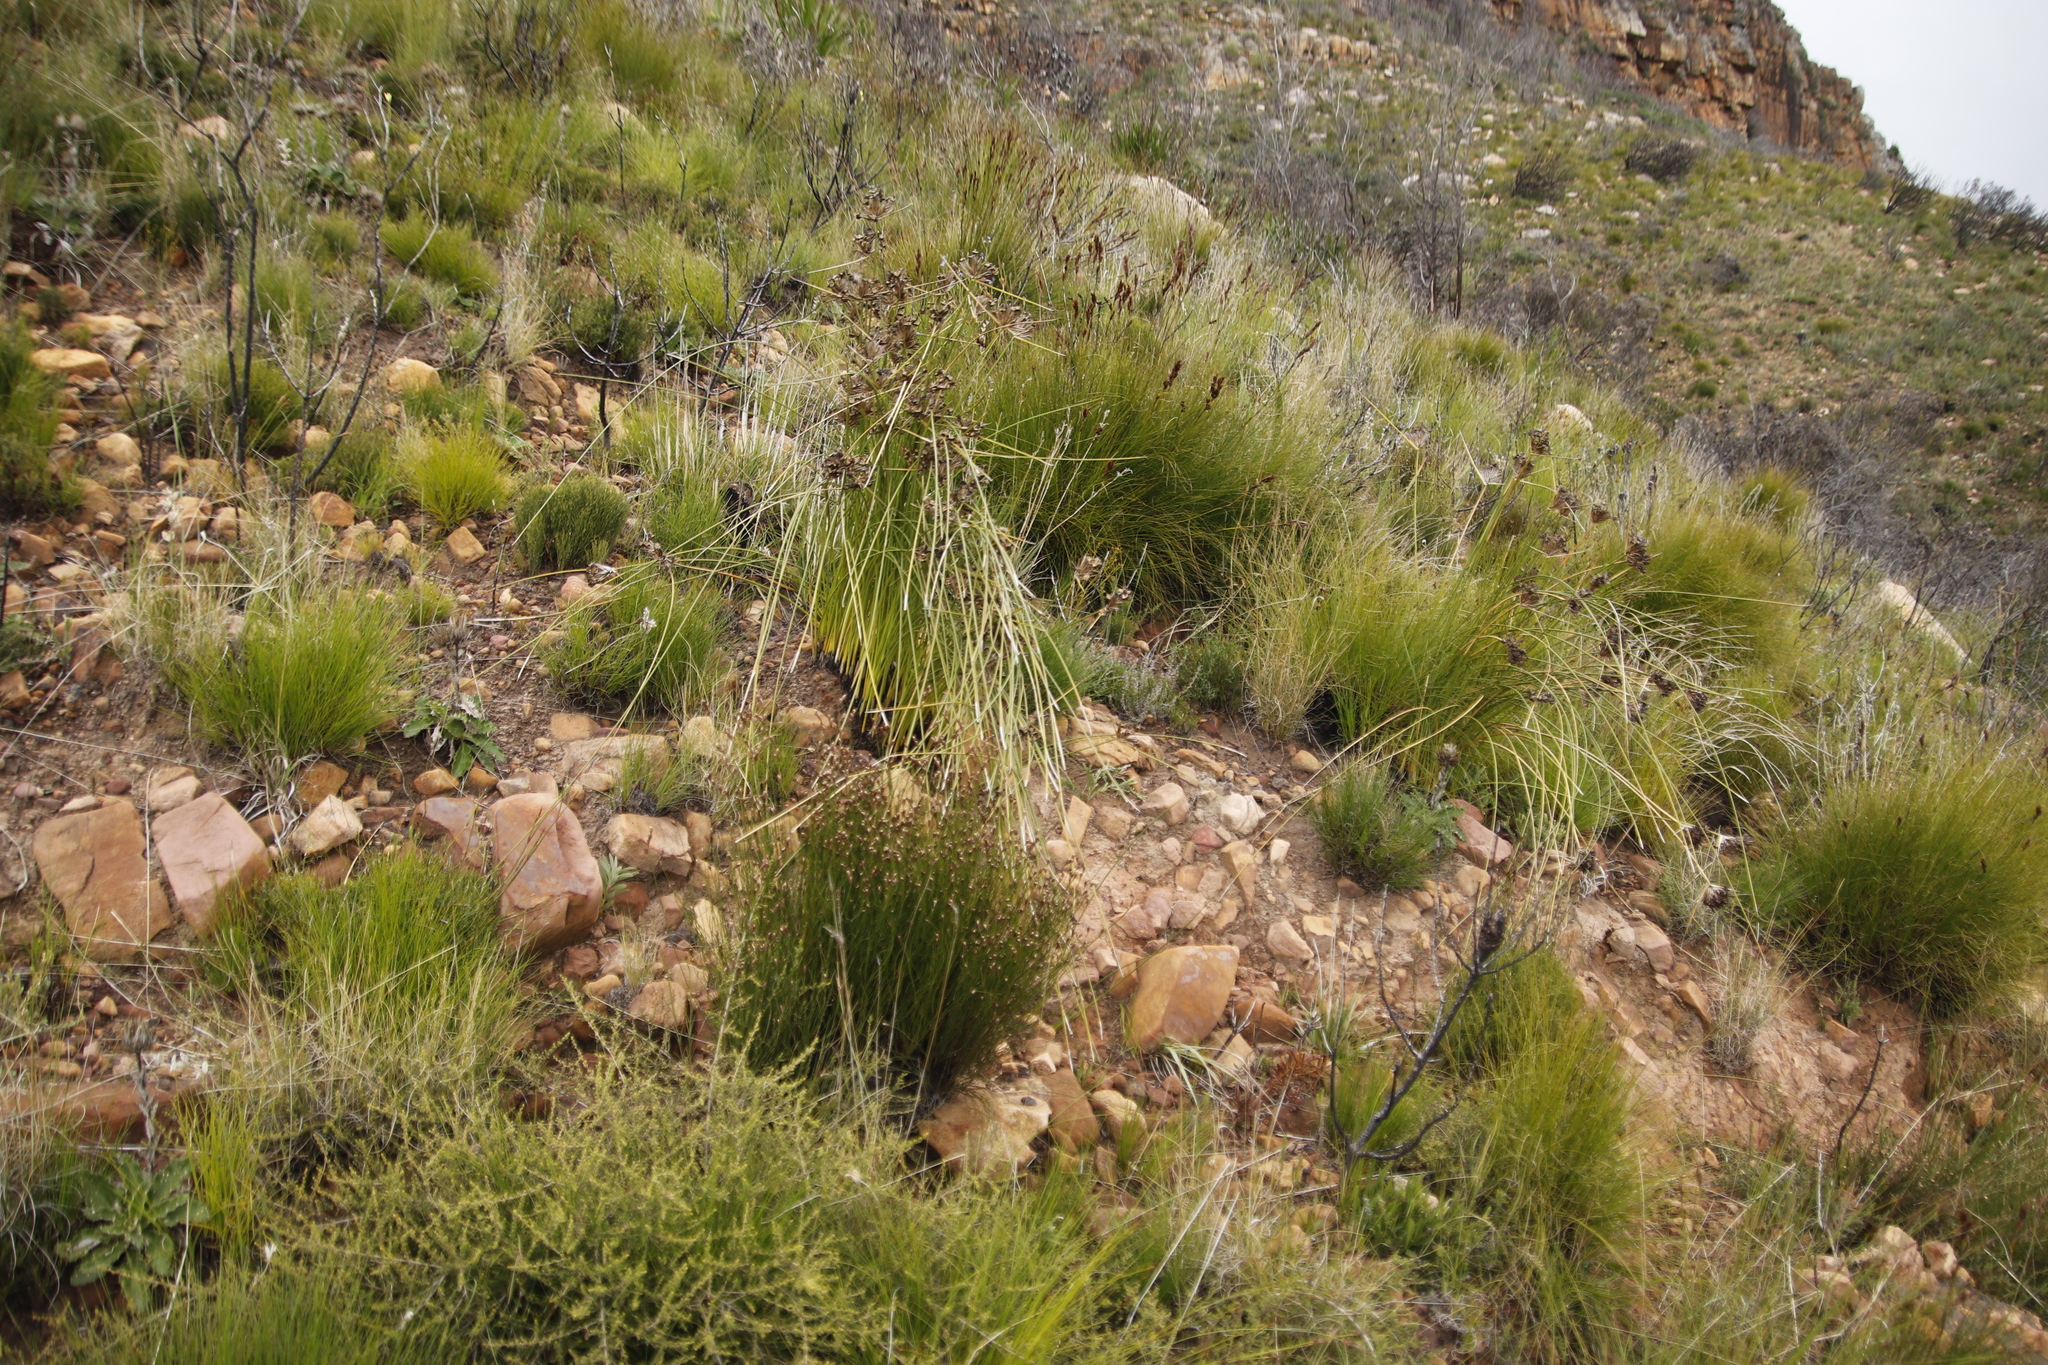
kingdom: Plantae
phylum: Tracheophyta
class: Liliopsida
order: Asparagales
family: Iridaceae
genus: Bobartia
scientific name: Bobartia indica
